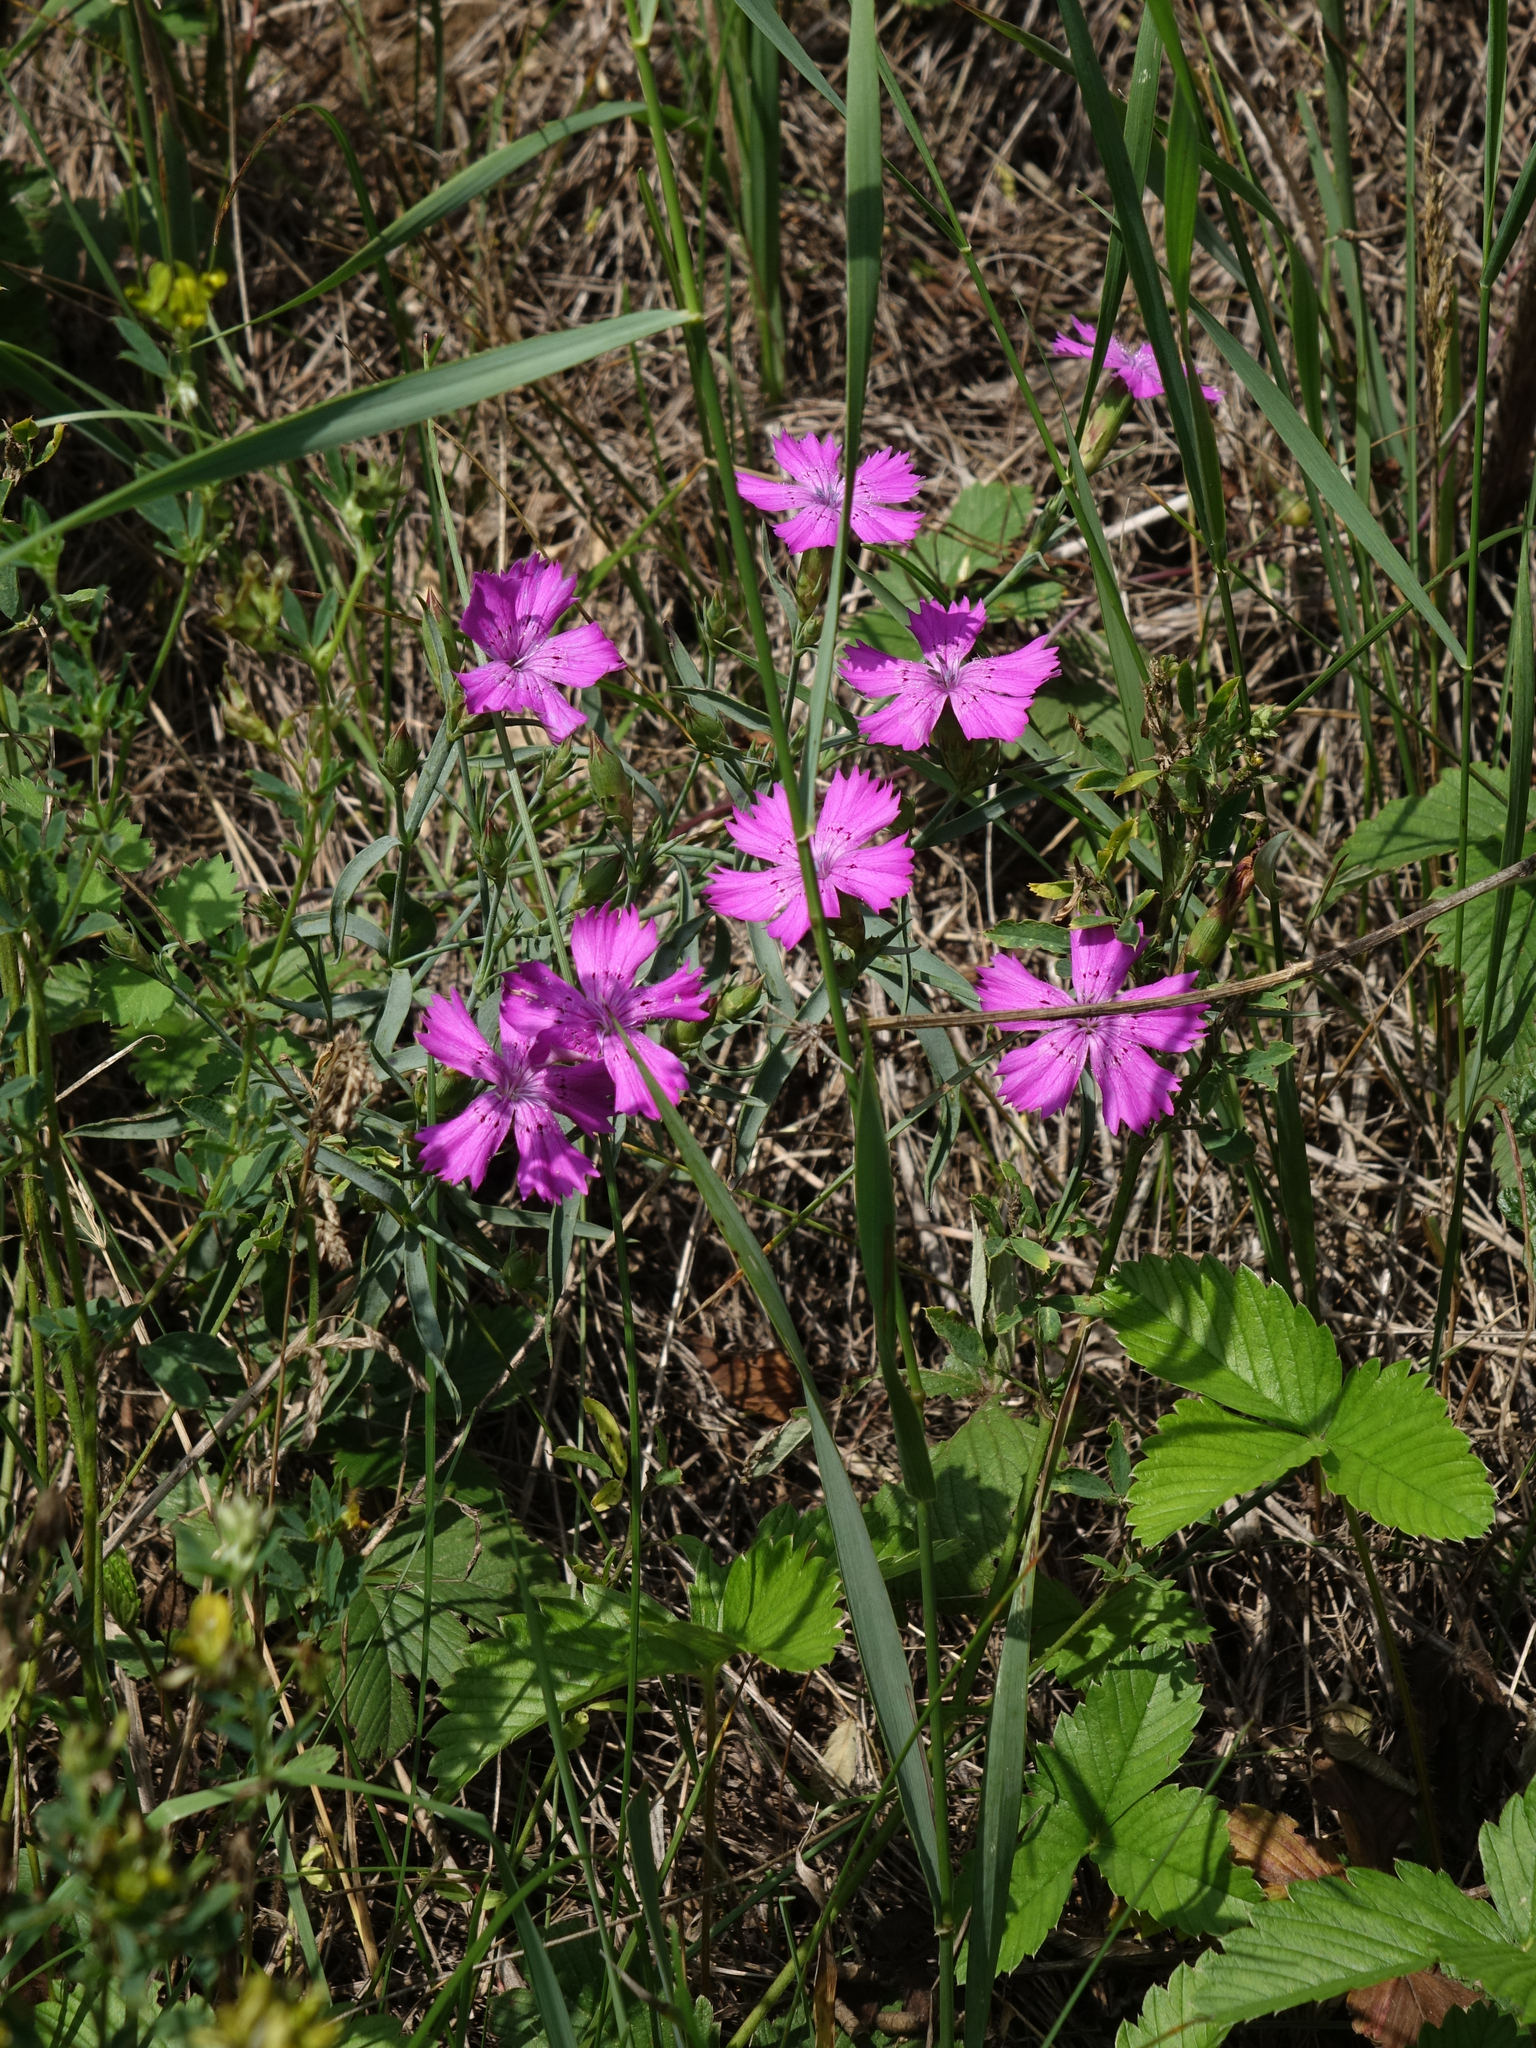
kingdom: Plantae
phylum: Tracheophyta
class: Magnoliopsida
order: Caryophyllales
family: Caryophyllaceae
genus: Dianthus
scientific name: Dianthus chinensis
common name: Rainbow pink
